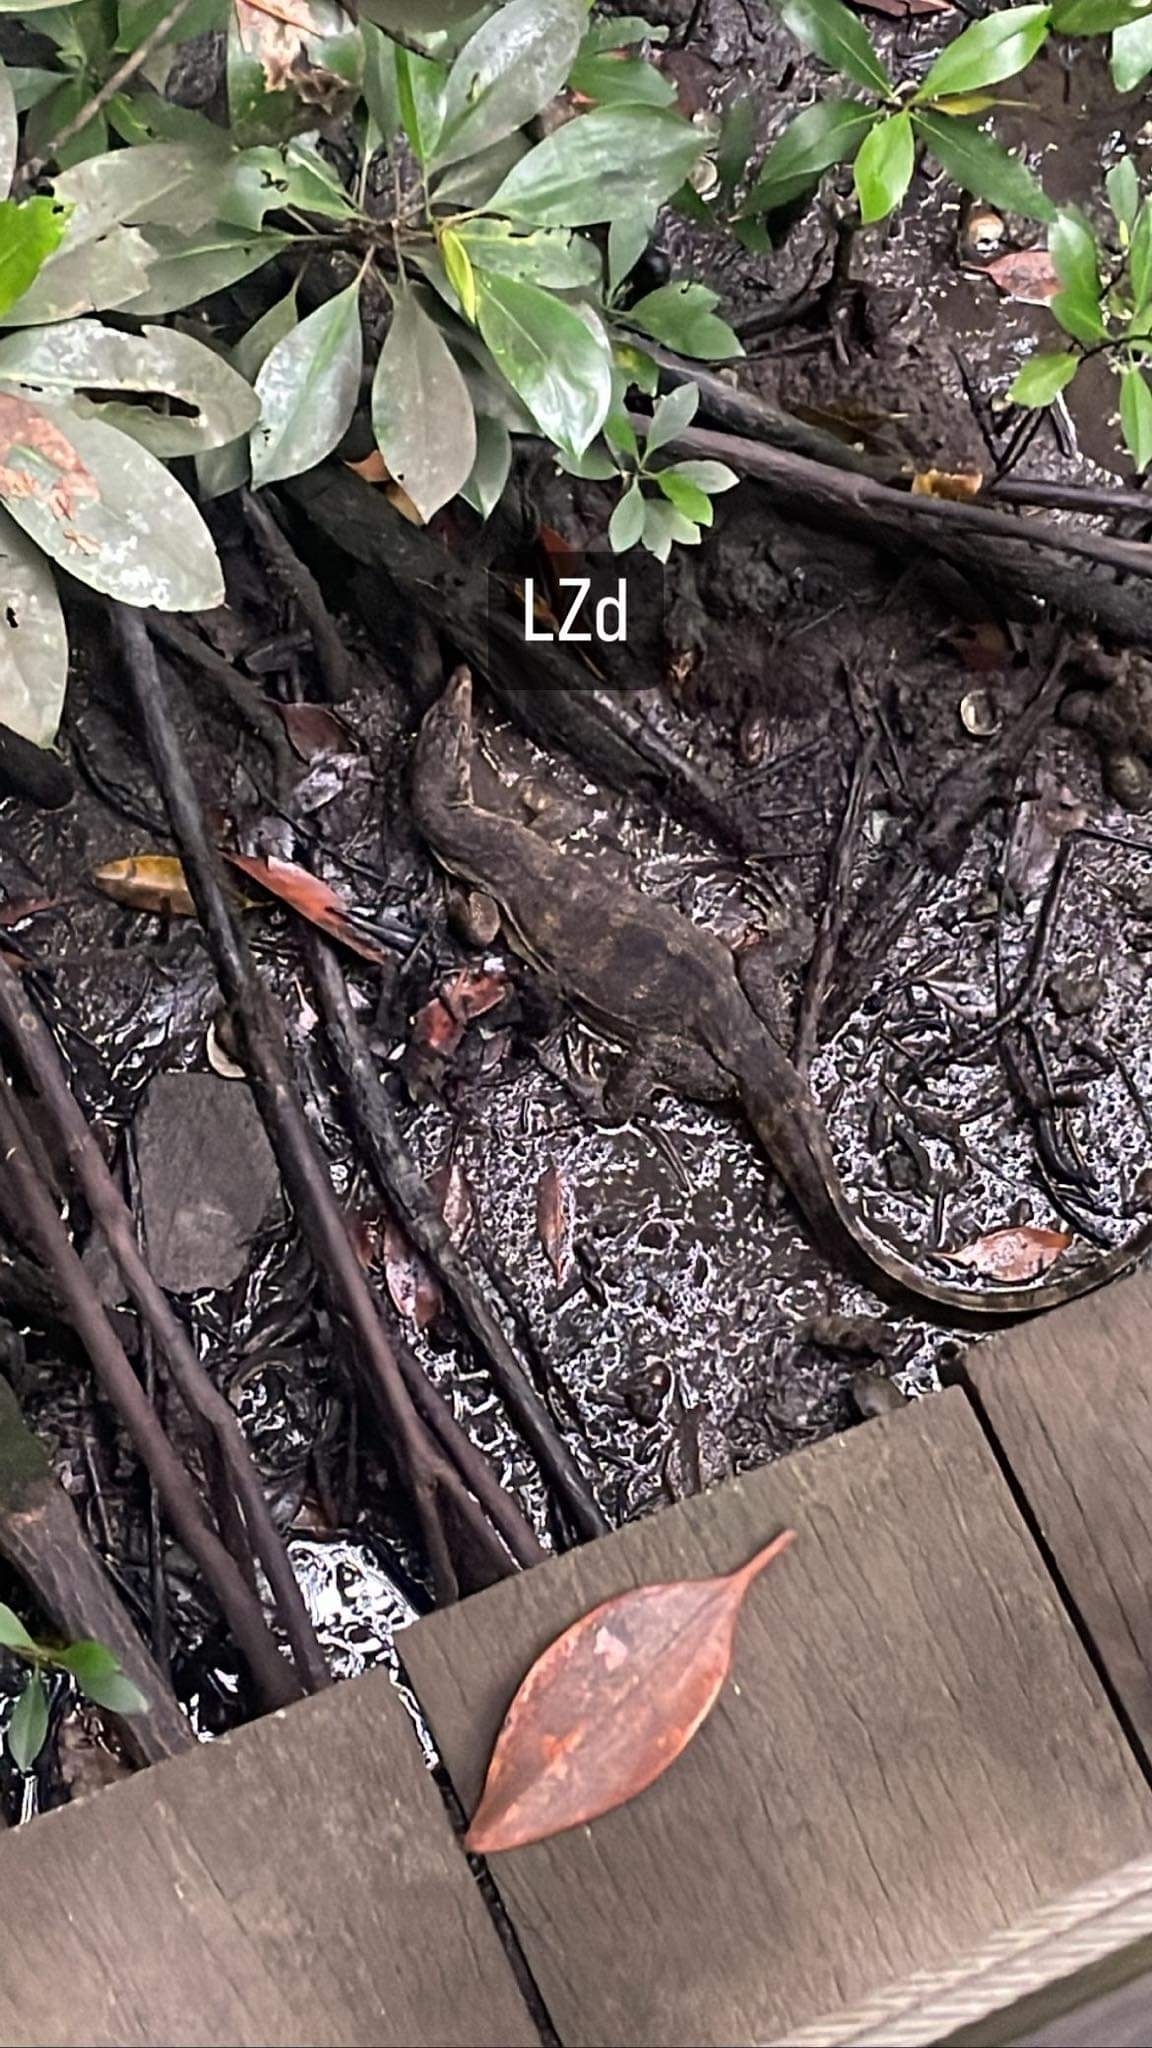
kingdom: Animalia
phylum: Chordata
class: Squamata
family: Varanidae
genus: Varanus
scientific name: Varanus salvator
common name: Common water monitor
